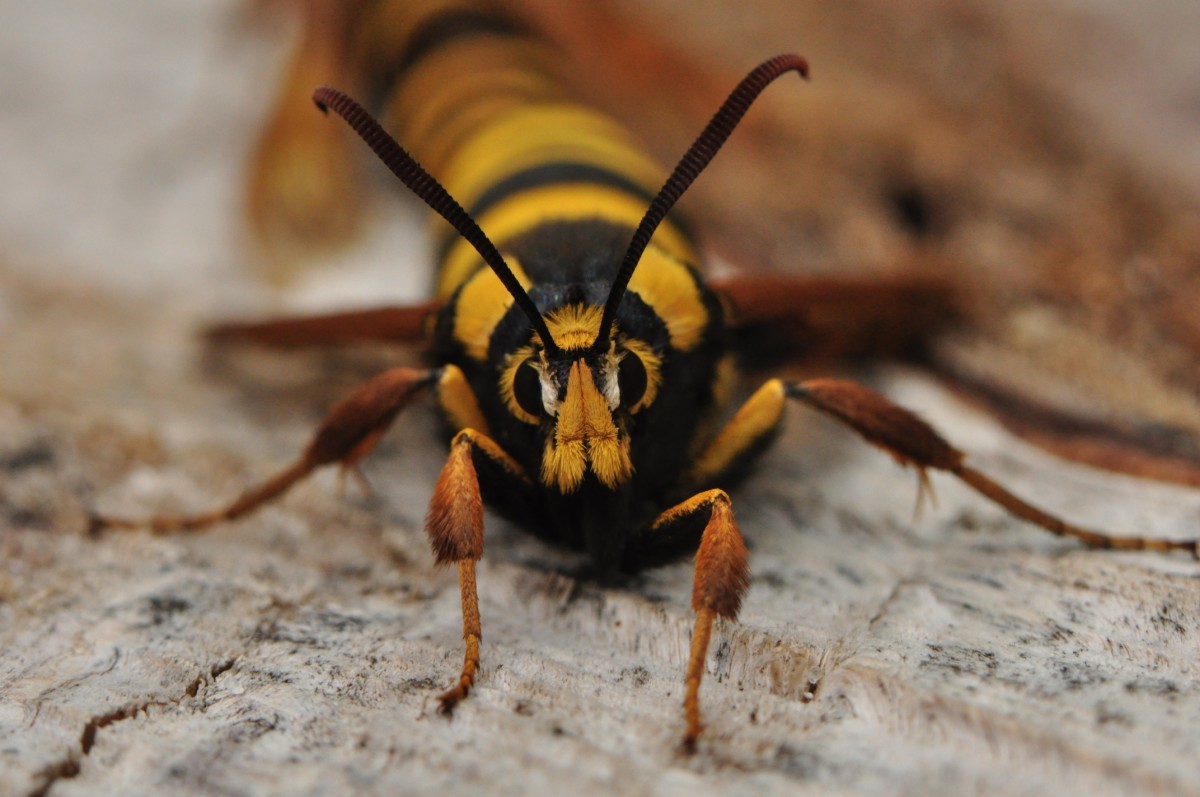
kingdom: Animalia
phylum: Arthropoda
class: Insecta
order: Lepidoptera
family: Sesiidae
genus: Sesia
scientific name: Sesia apiformis
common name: Hornet moth
